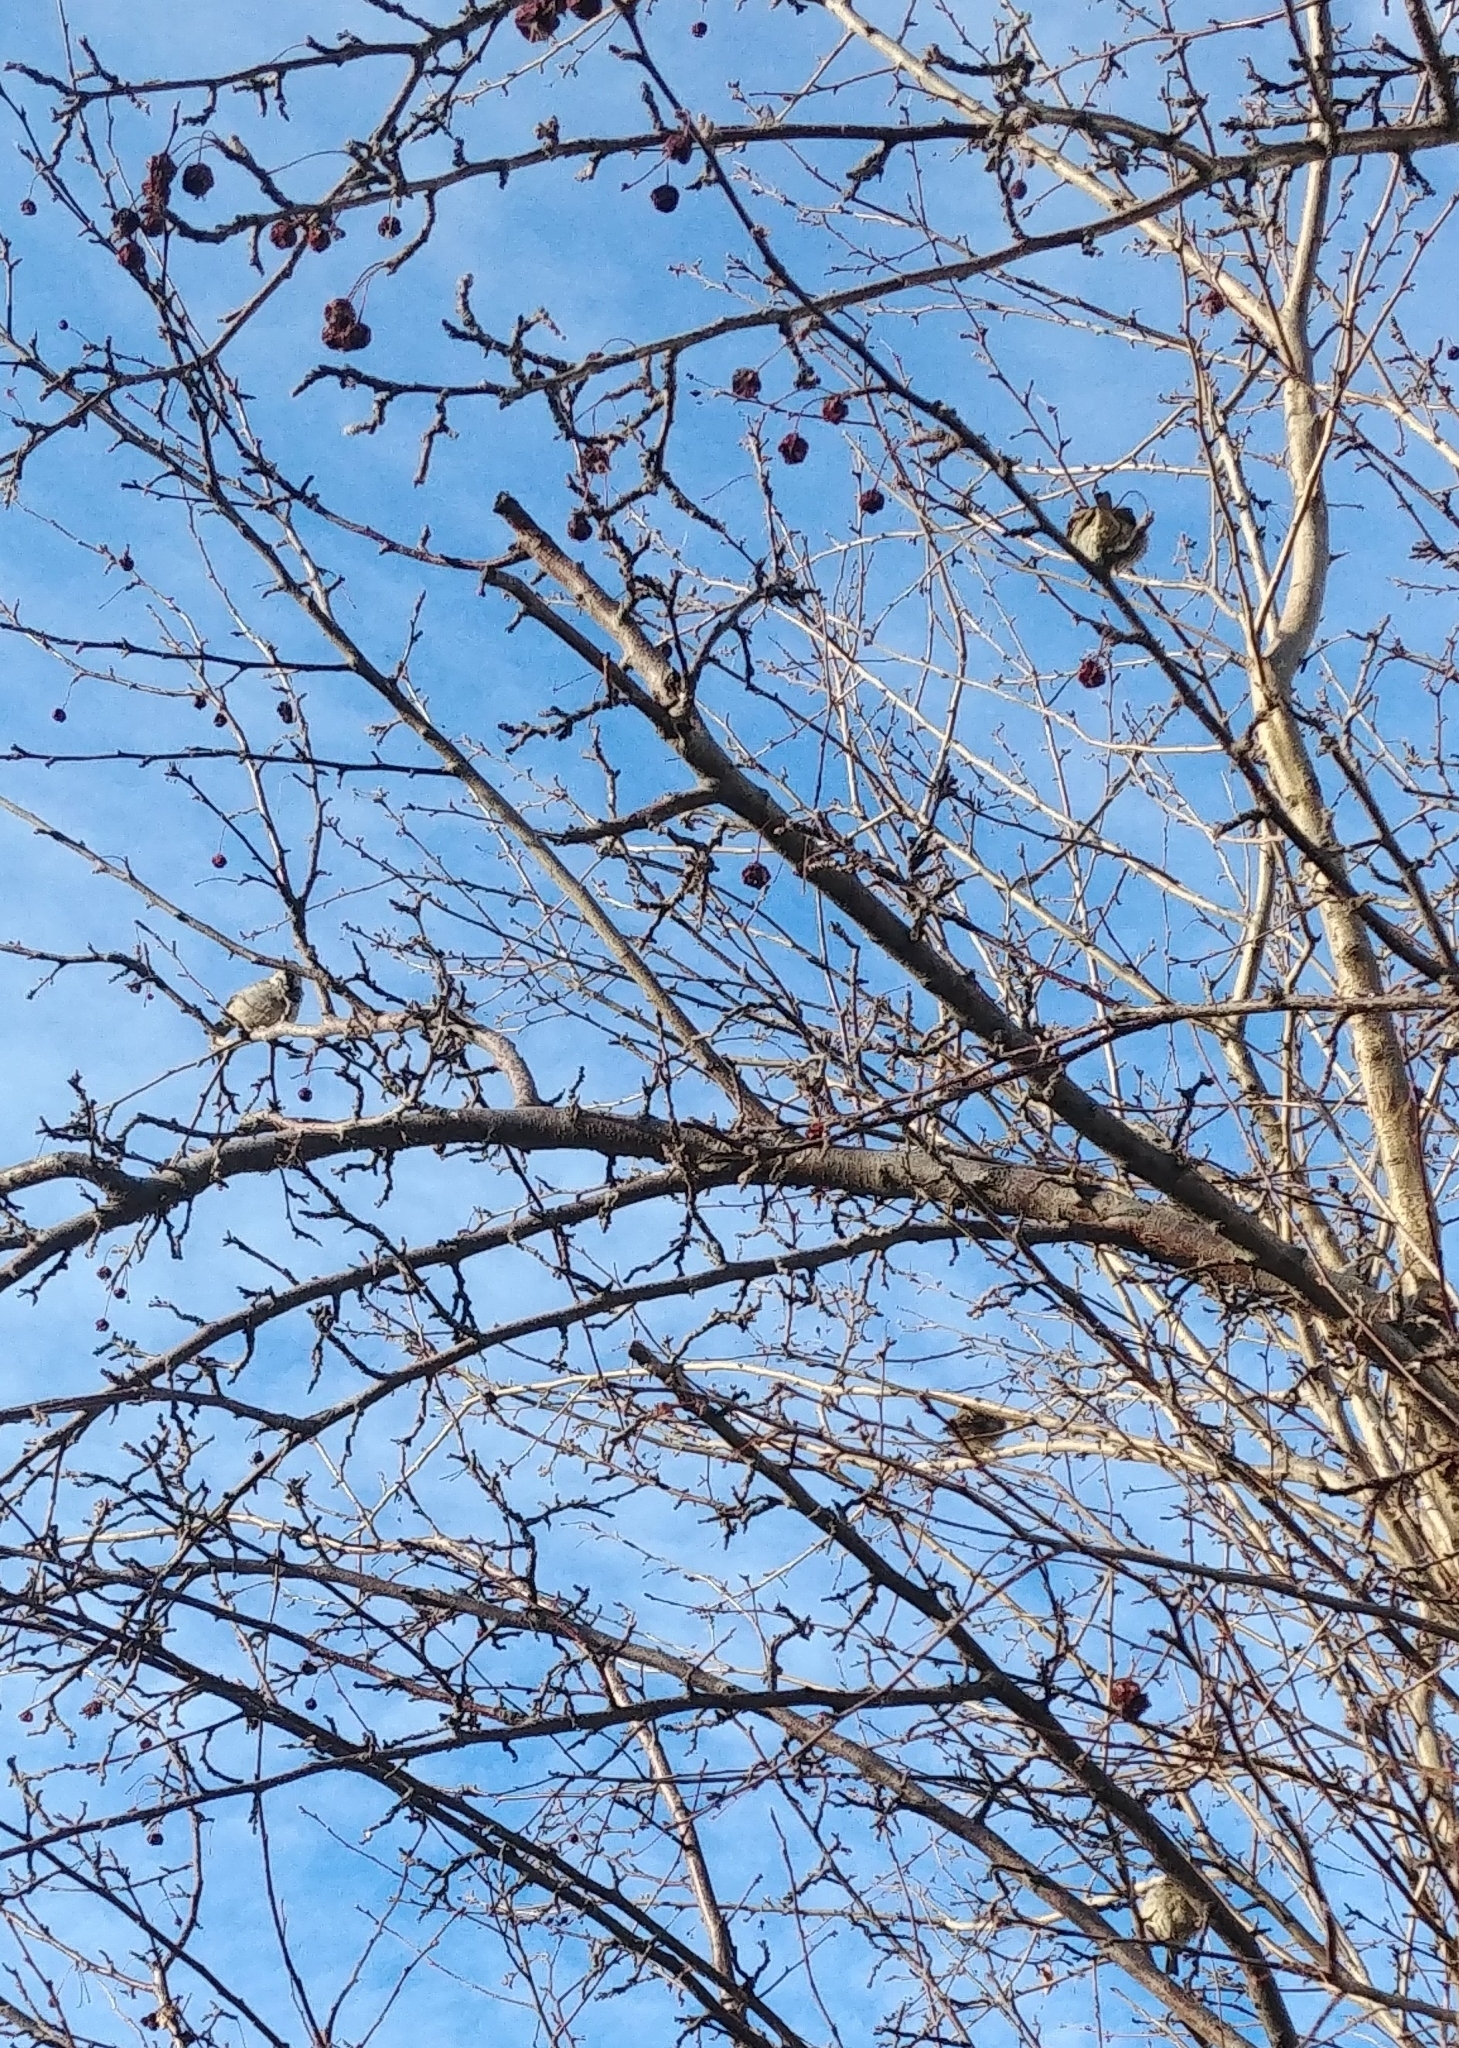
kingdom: Animalia
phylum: Chordata
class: Aves
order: Passeriformes
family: Passeridae
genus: Passer
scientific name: Passer domesticus
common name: House sparrow
